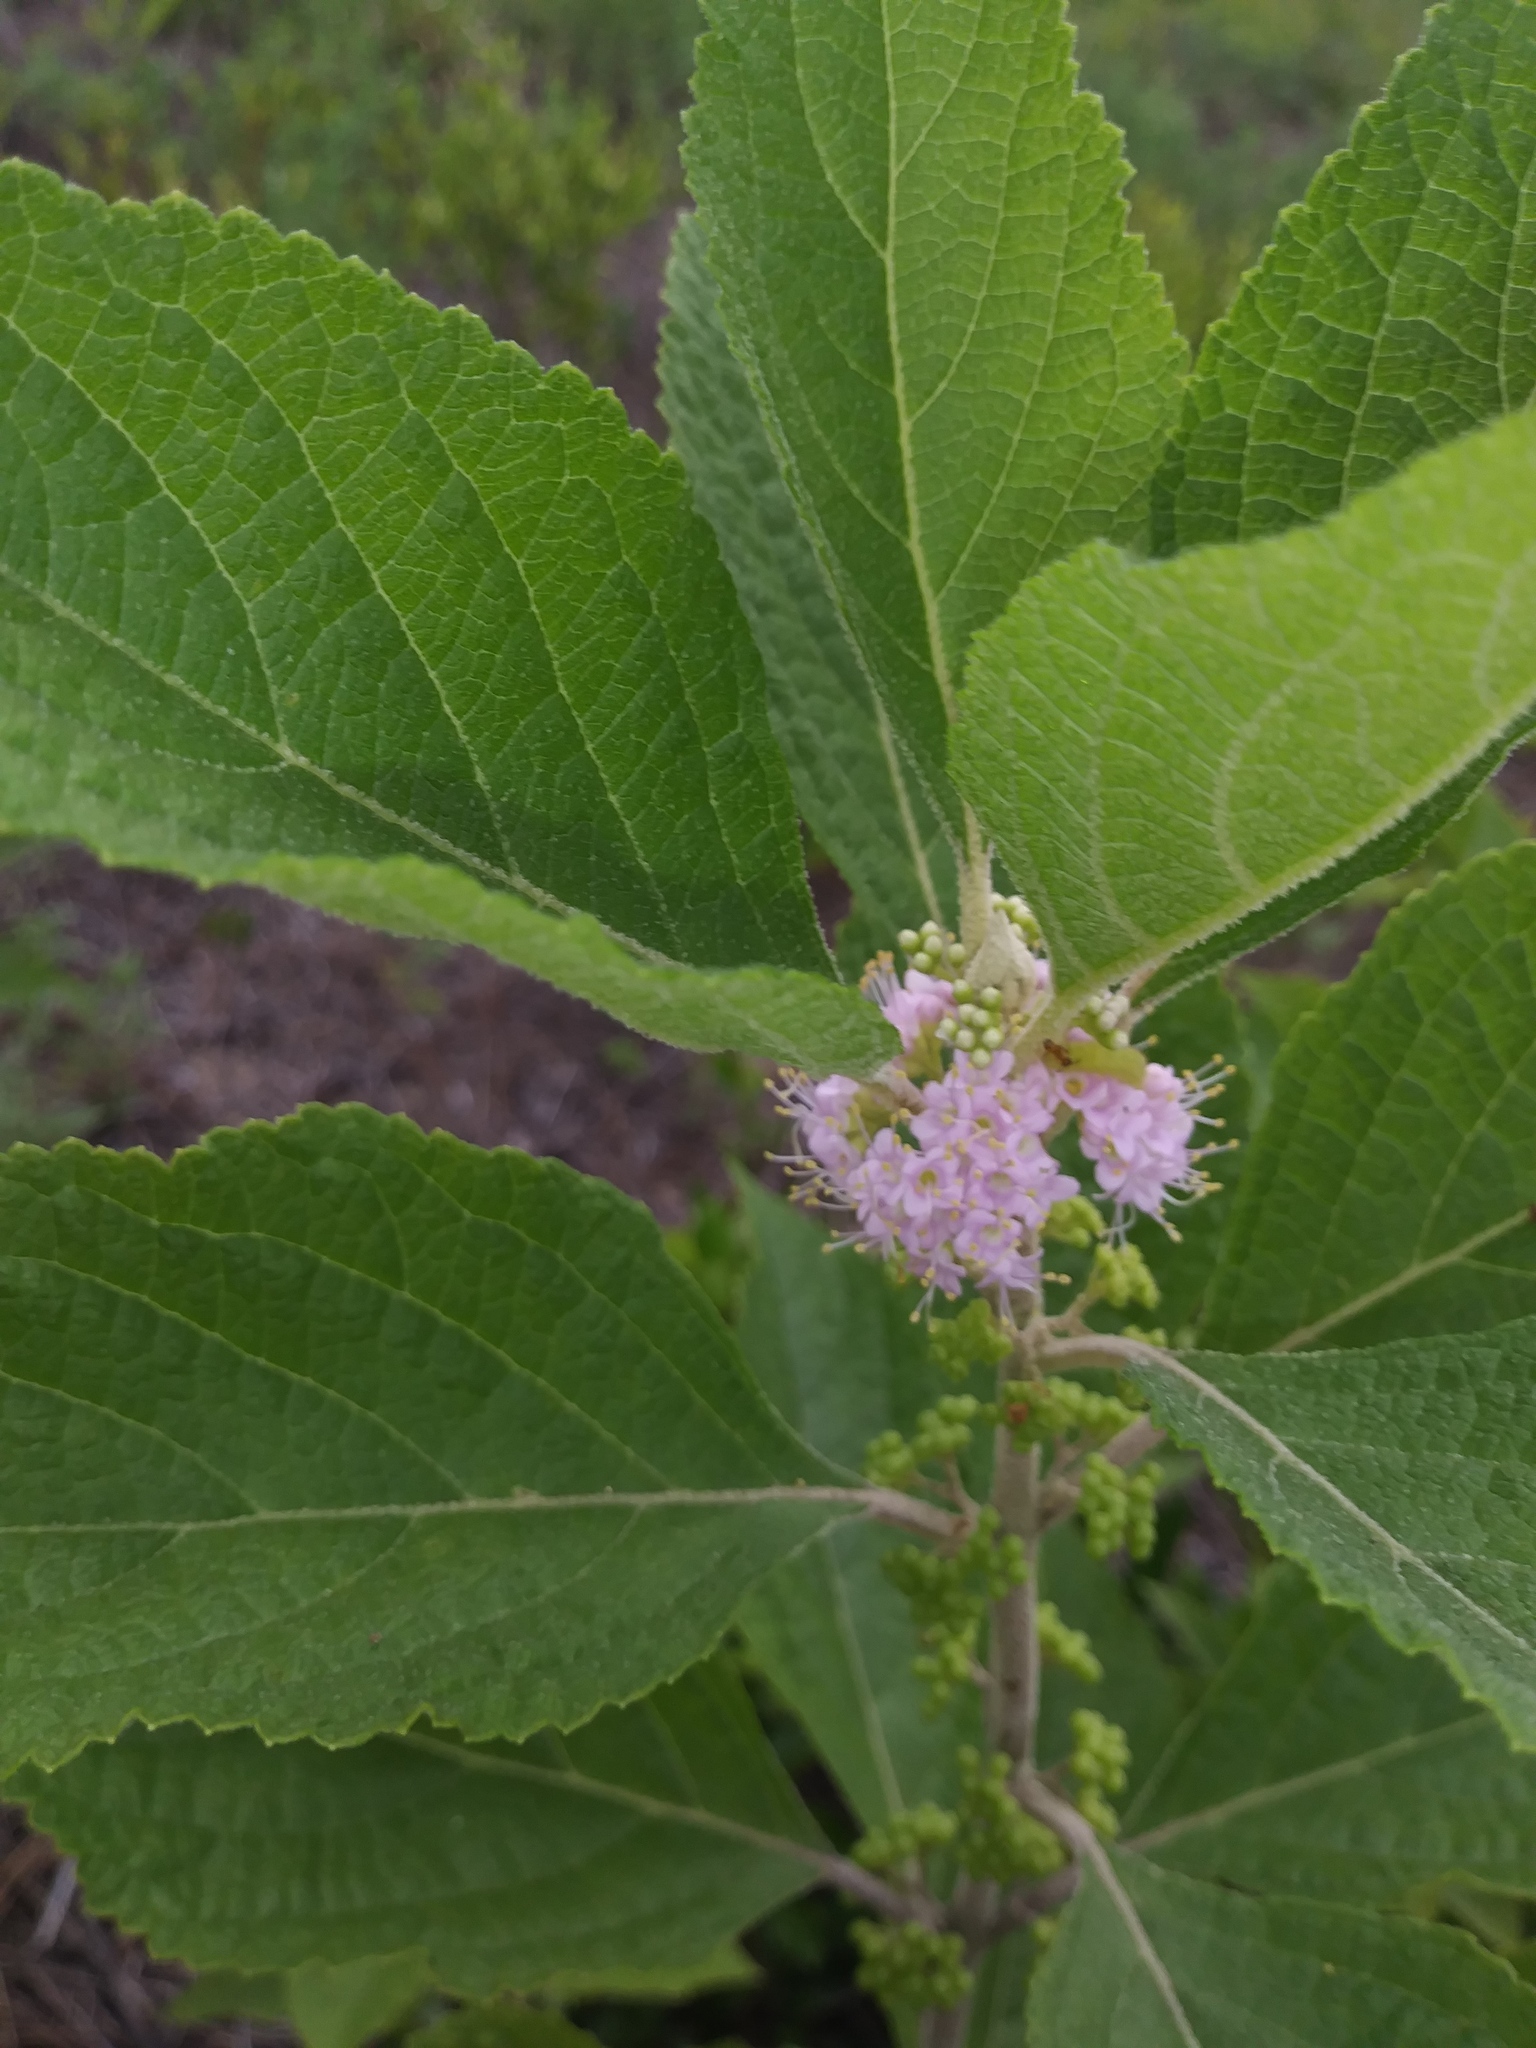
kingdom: Plantae
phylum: Tracheophyta
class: Magnoliopsida
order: Lamiales
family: Lamiaceae
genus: Callicarpa
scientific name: Callicarpa americana
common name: American beautyberry
